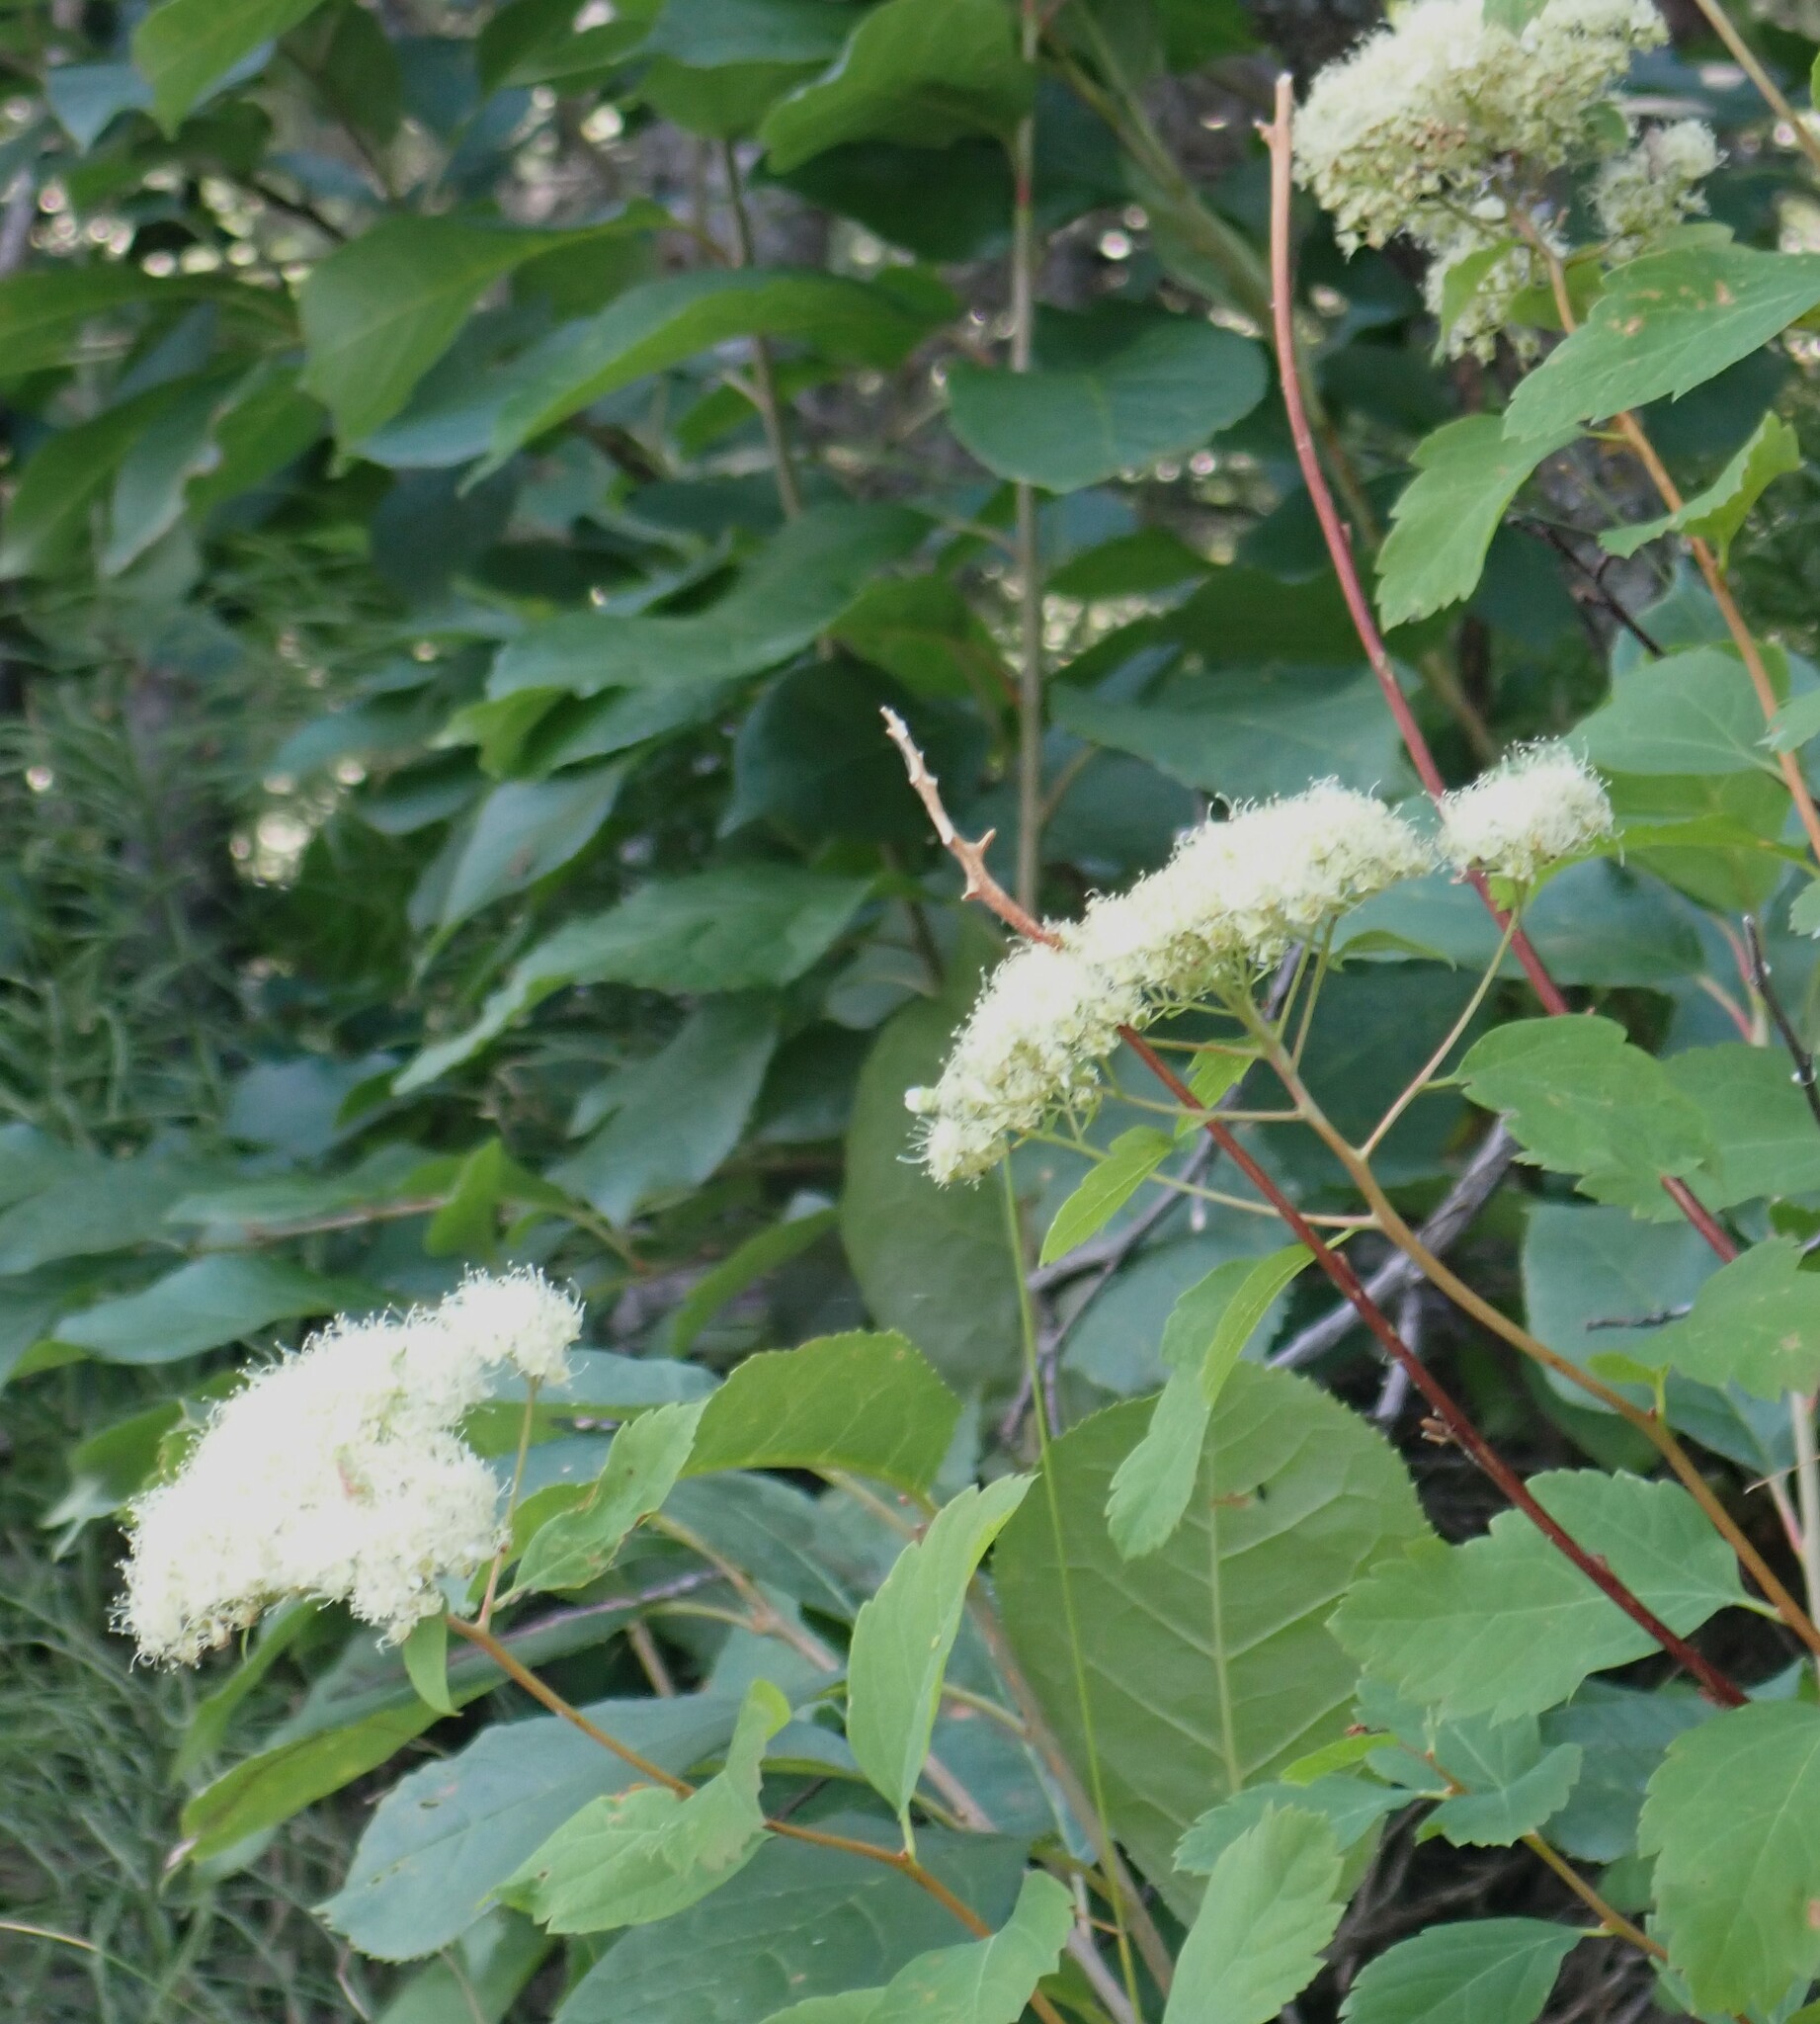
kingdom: Plantae
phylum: Tracheophyta
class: Magnoliopsida
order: Rosales
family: Rosaceae
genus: Spiraea
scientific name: Spiraea lucida
